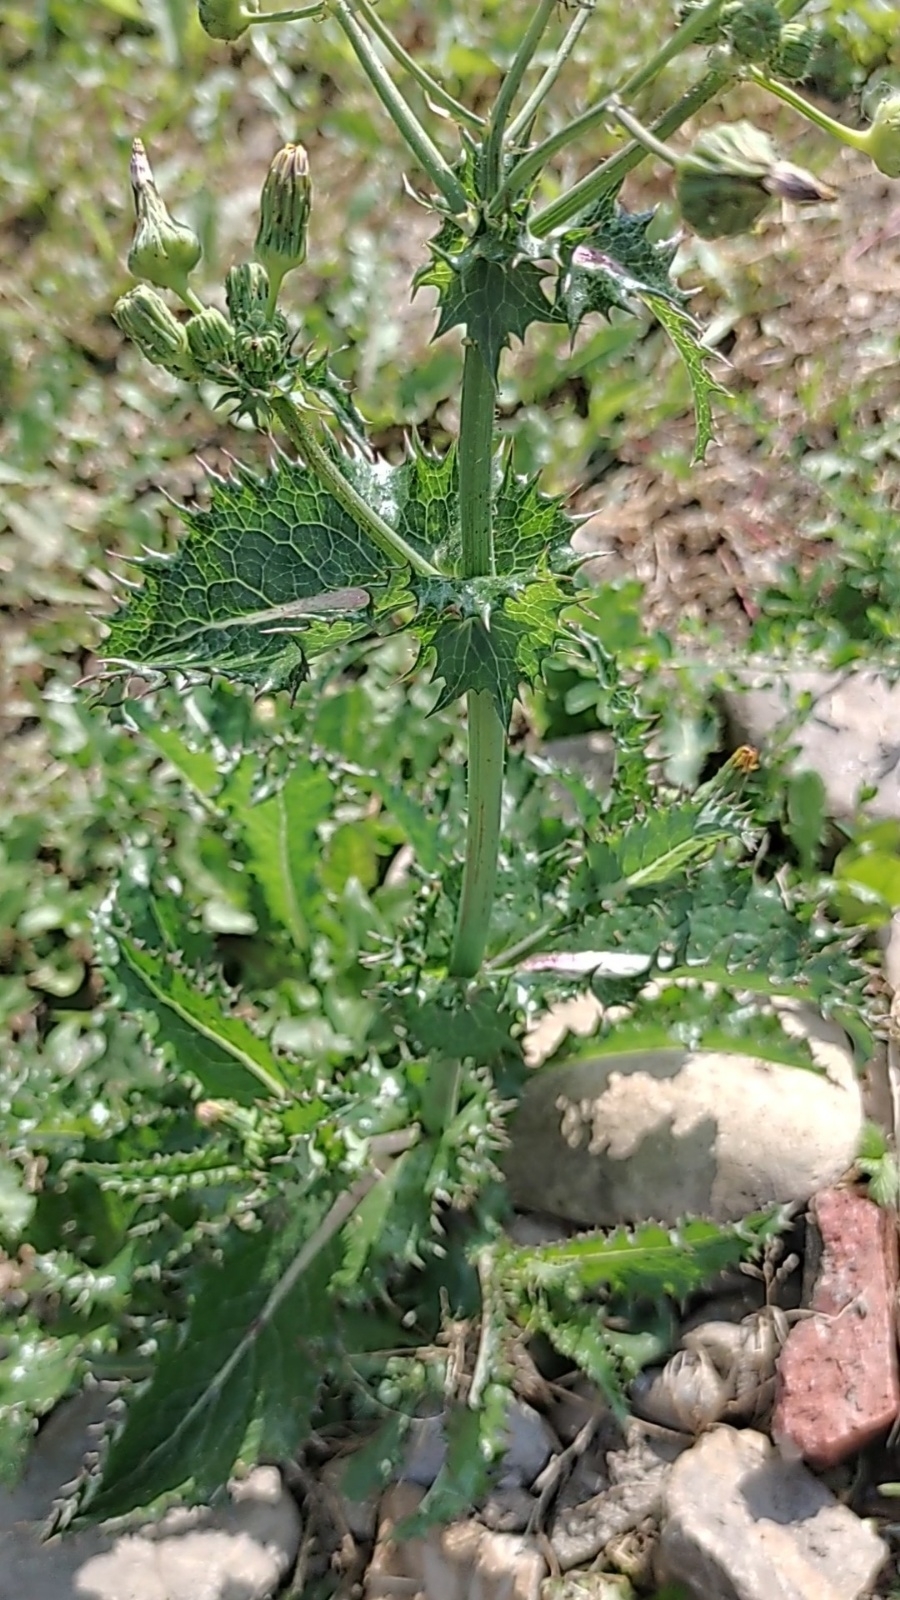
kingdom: Plantae
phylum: Tracheophyta
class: Magnoliopsida
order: Asterales
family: Asteraceae
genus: Sonchus
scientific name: Sonchus asper
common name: Prickly sow-thistle
